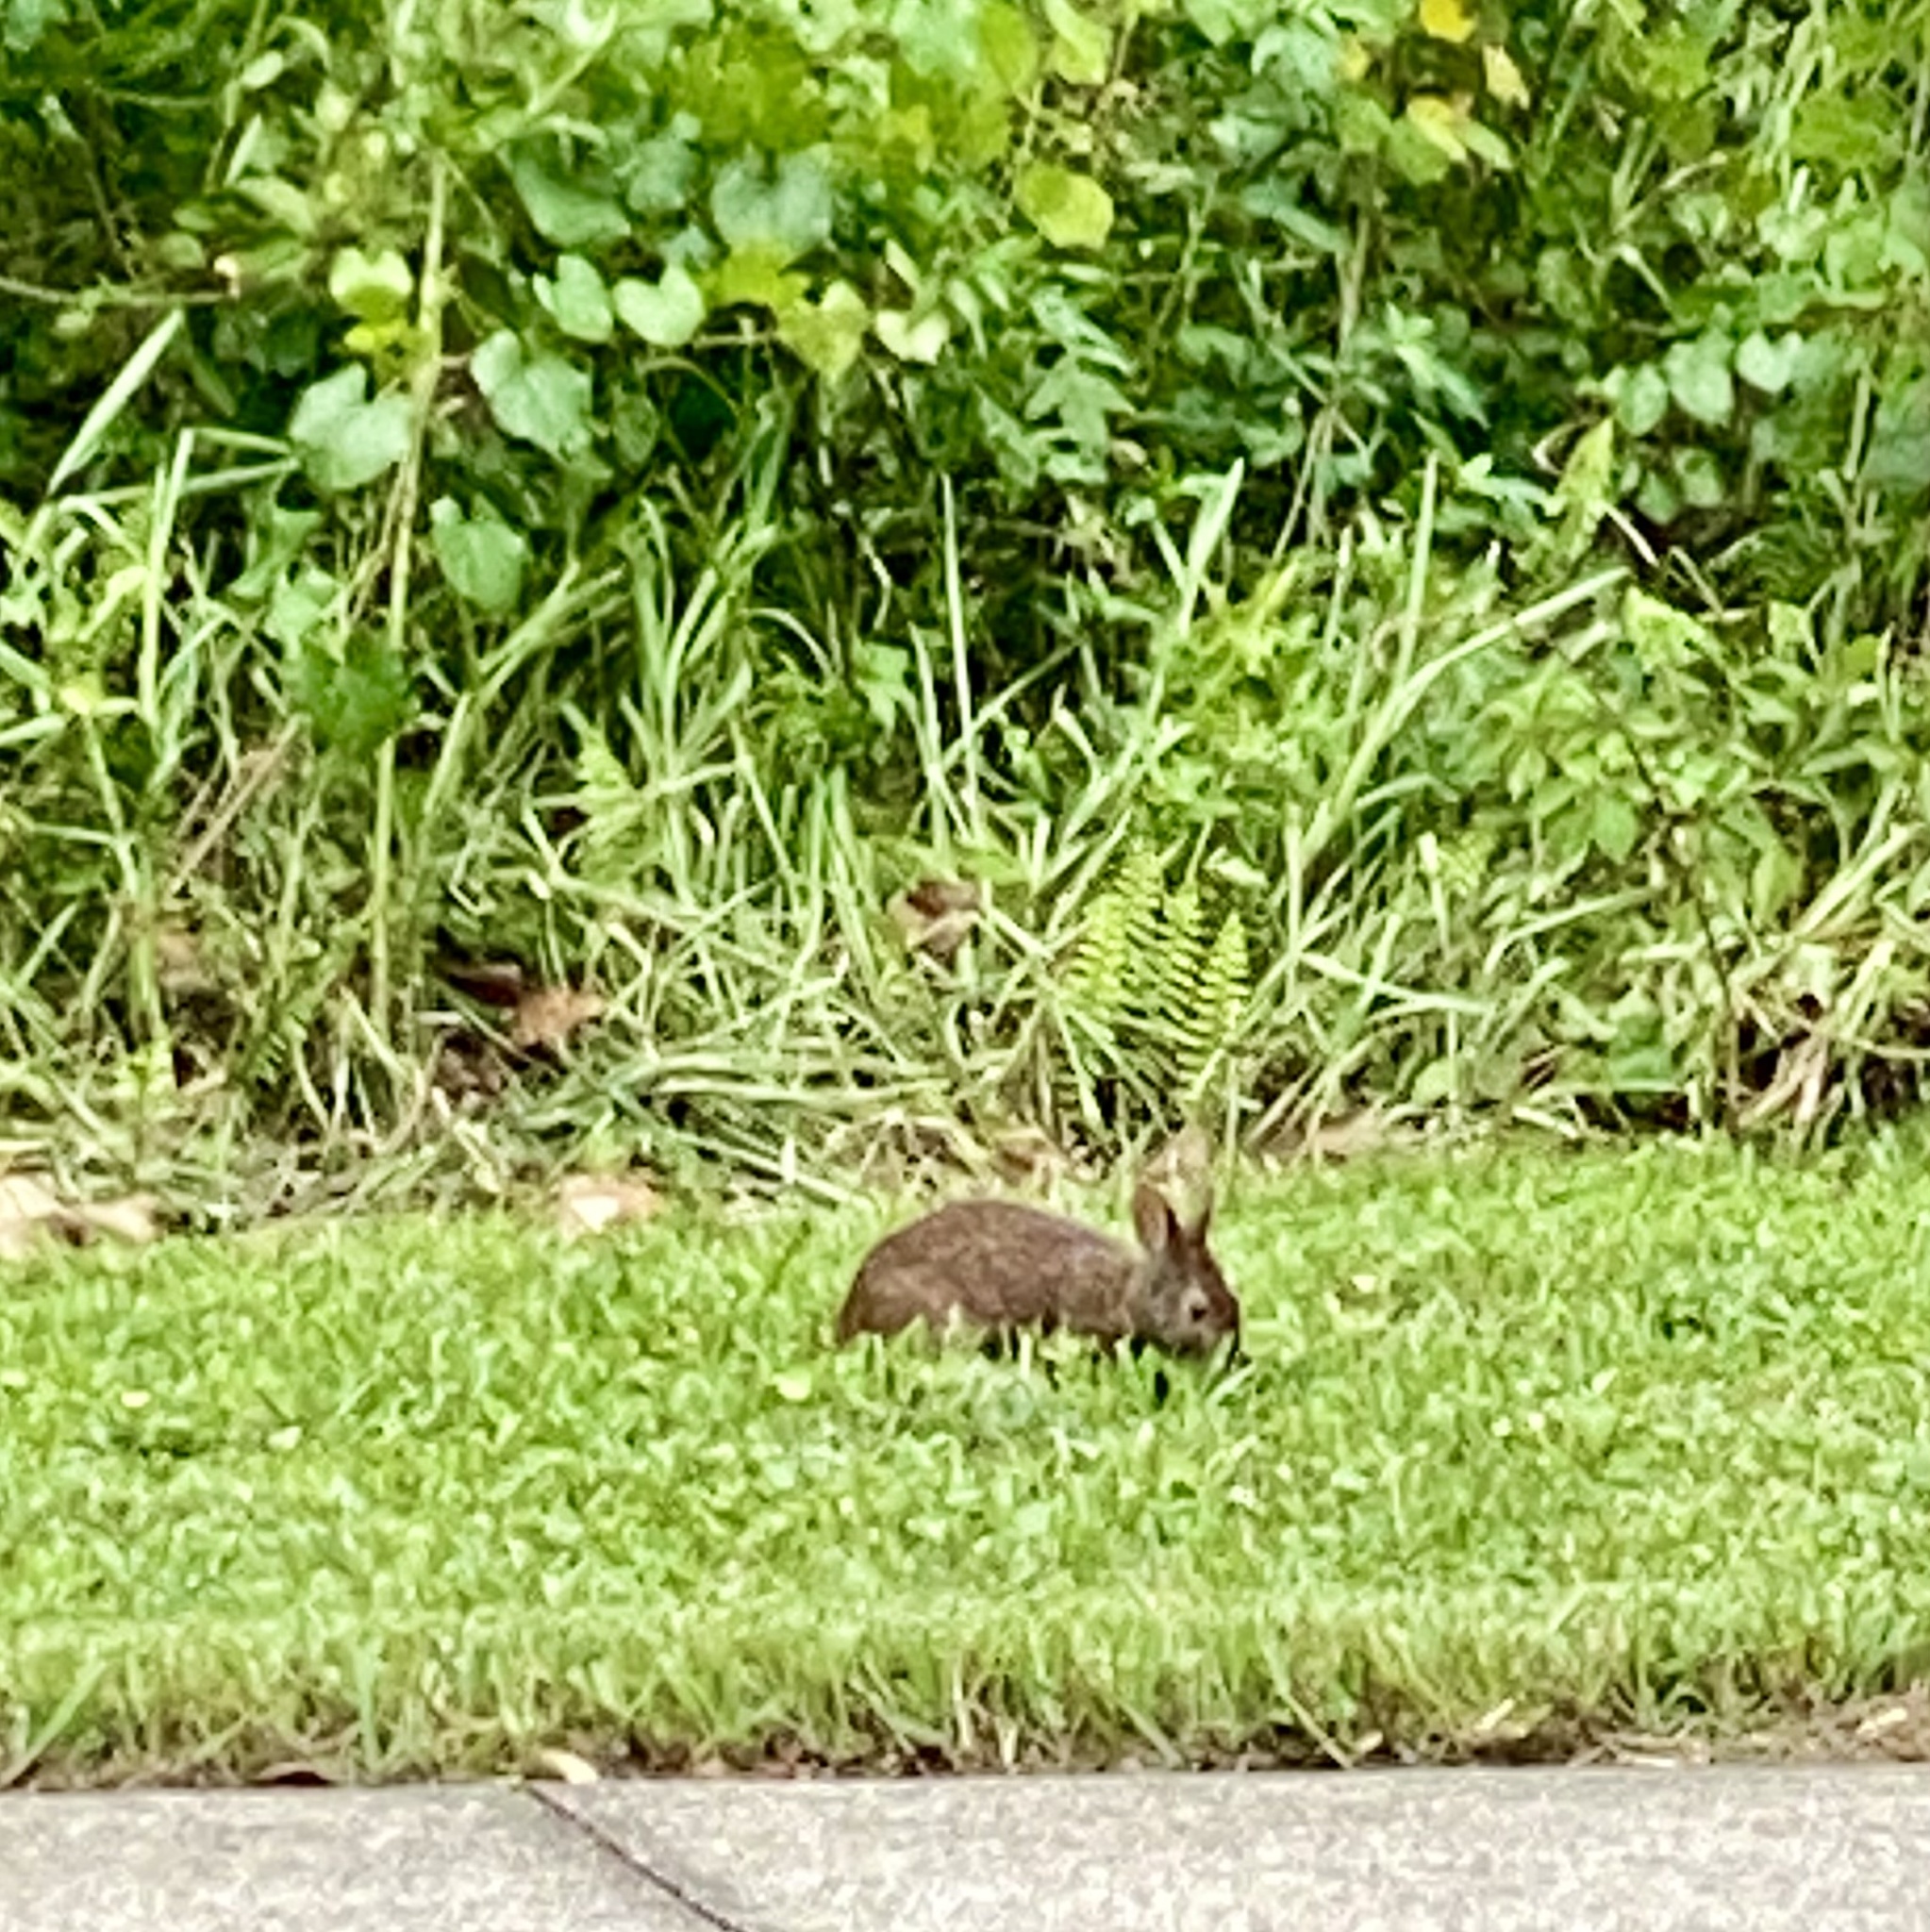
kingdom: Animalia
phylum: Chordata
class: Mammalia
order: Lagomorpha
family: Leporidae
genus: Sylvilagus
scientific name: Sylvilagus palustris
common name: Marsh rabbit
